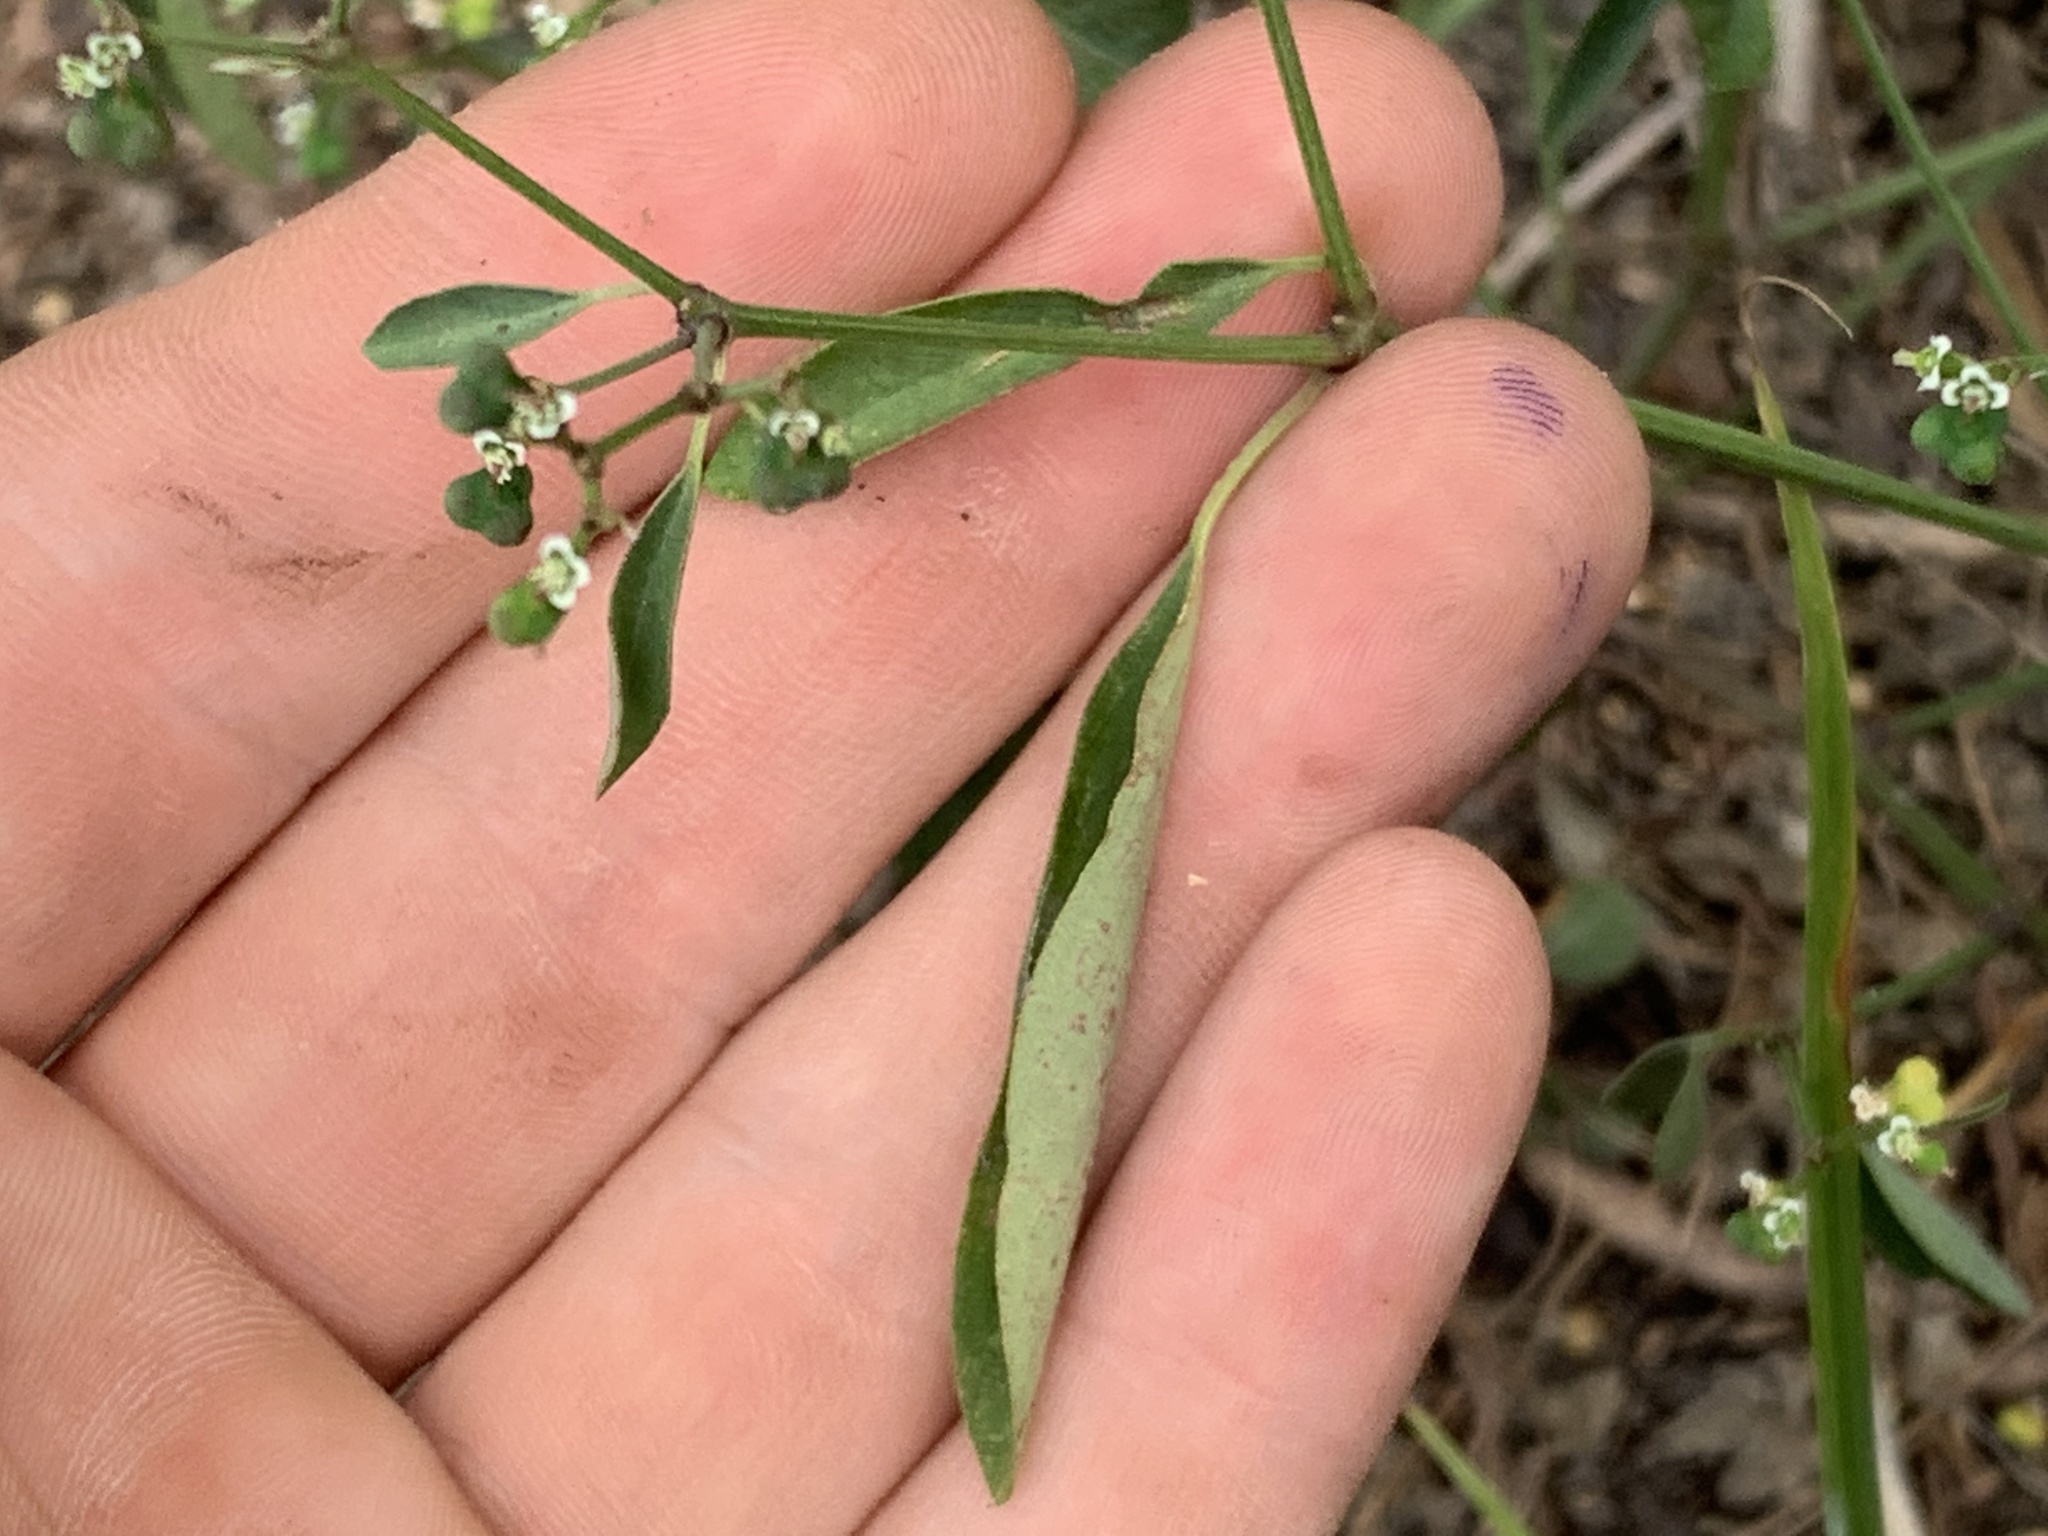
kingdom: Plantae
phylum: Tracheophyta
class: Magnoliopsida
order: Malpighiales
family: Euphorbiaceae
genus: Euphorbia
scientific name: Euphorbia graminea
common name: Grassleaf spurge
